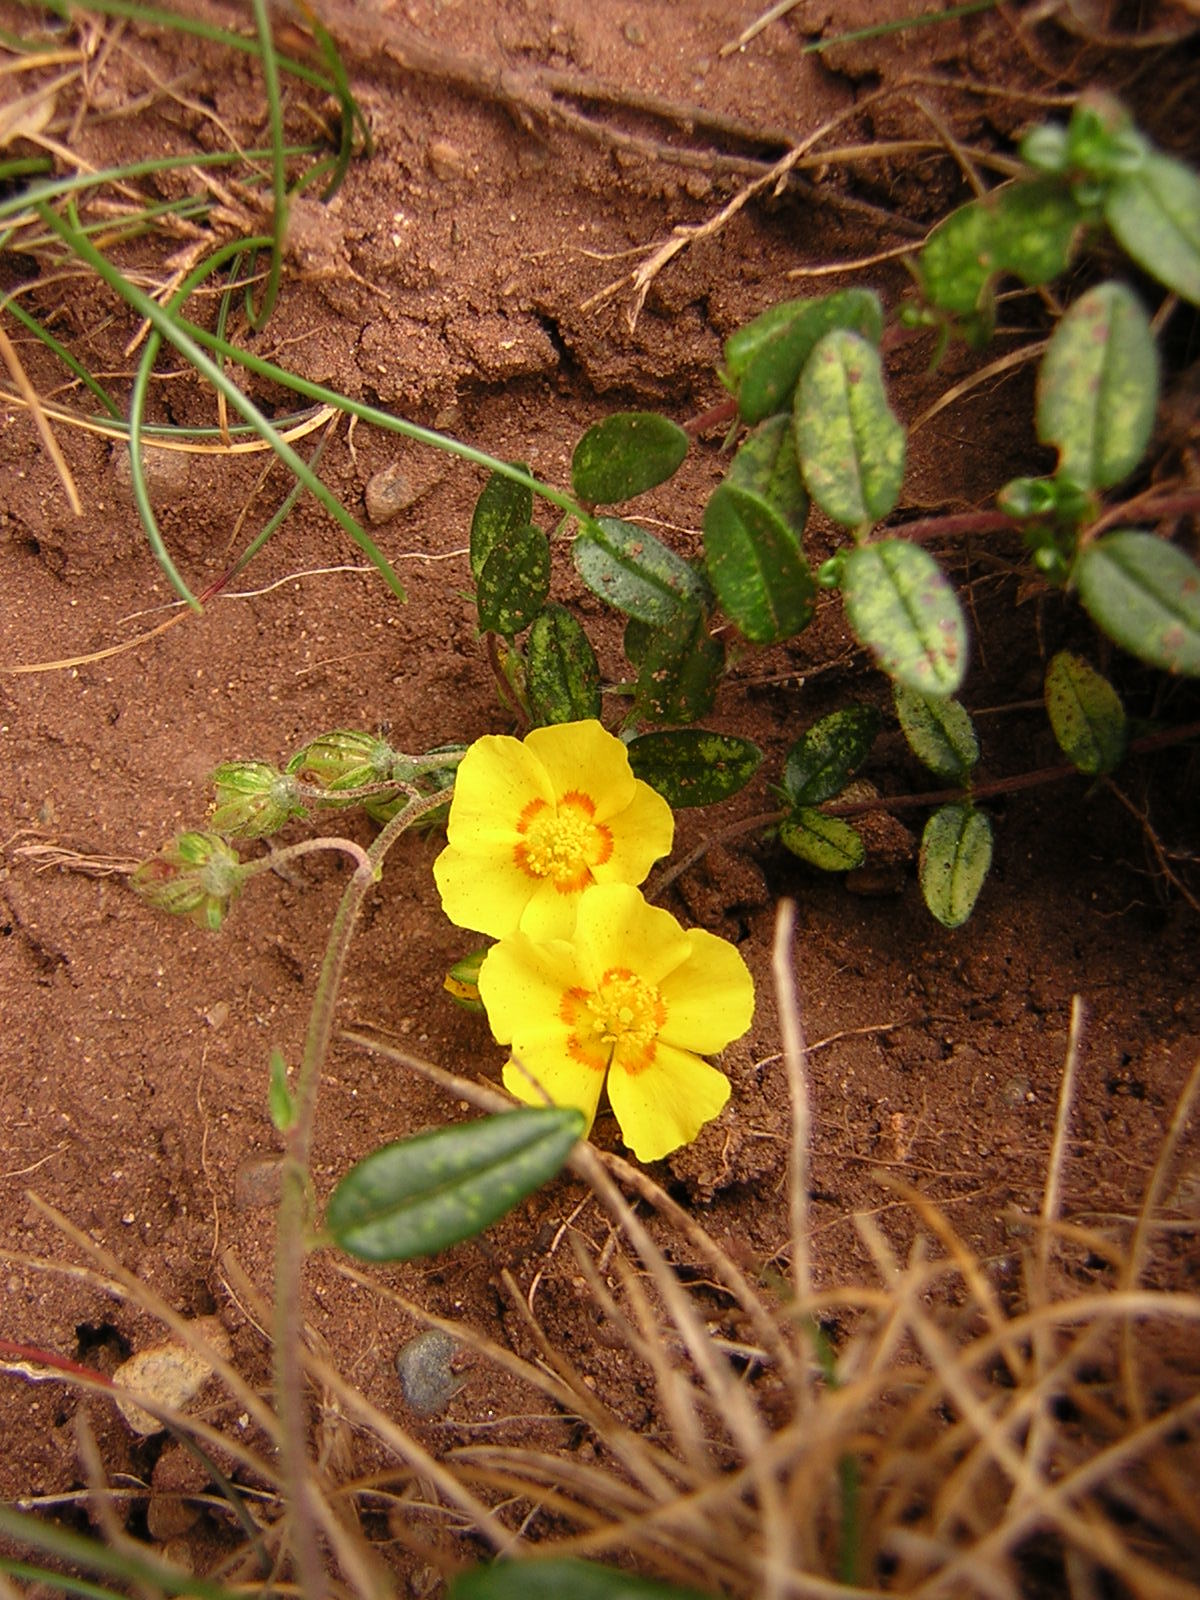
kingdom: Plantae
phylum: Tracheophyta
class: Magnoliopsida
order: Malvales
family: Cistaceae
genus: Helianthemum
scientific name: Helianthemum nummularium
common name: Common rock-rose
